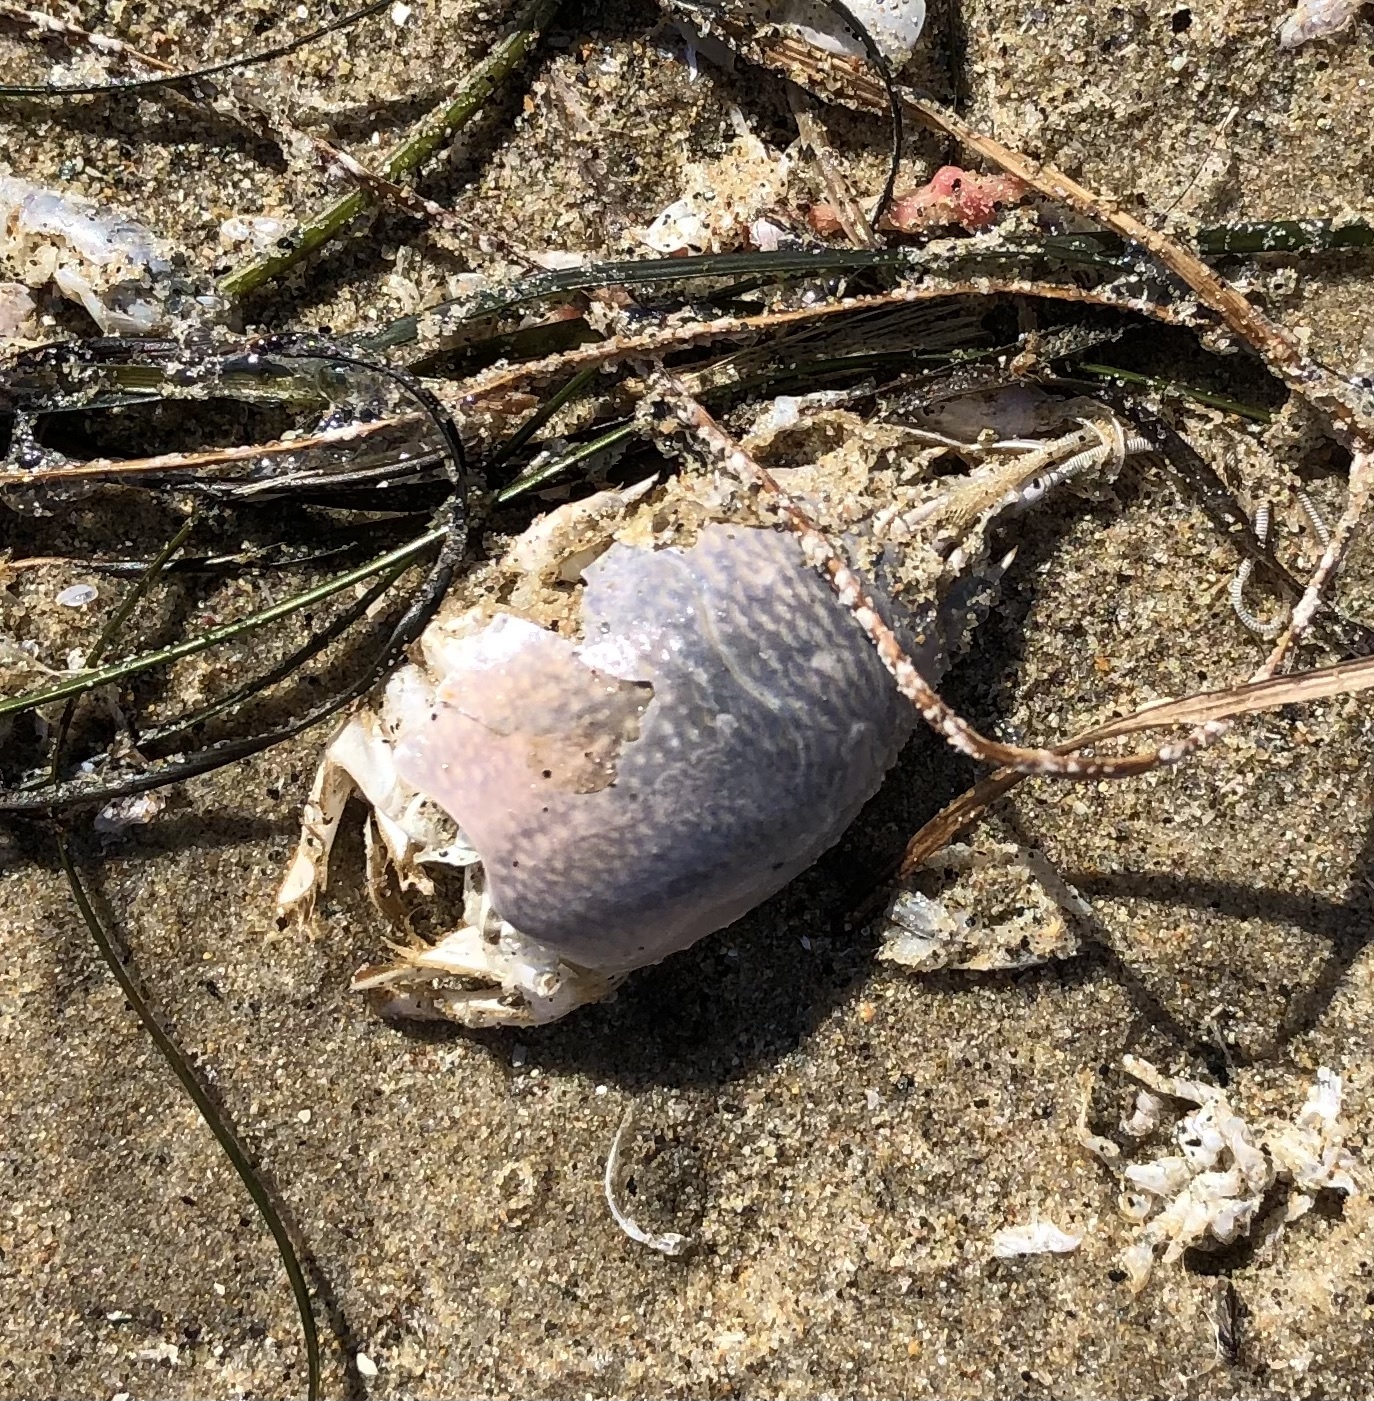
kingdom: Animalia
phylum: Arthropoda
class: Malacostraca
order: Decapoda
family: Hippidae
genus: Emerita
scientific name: Emerita analoga
